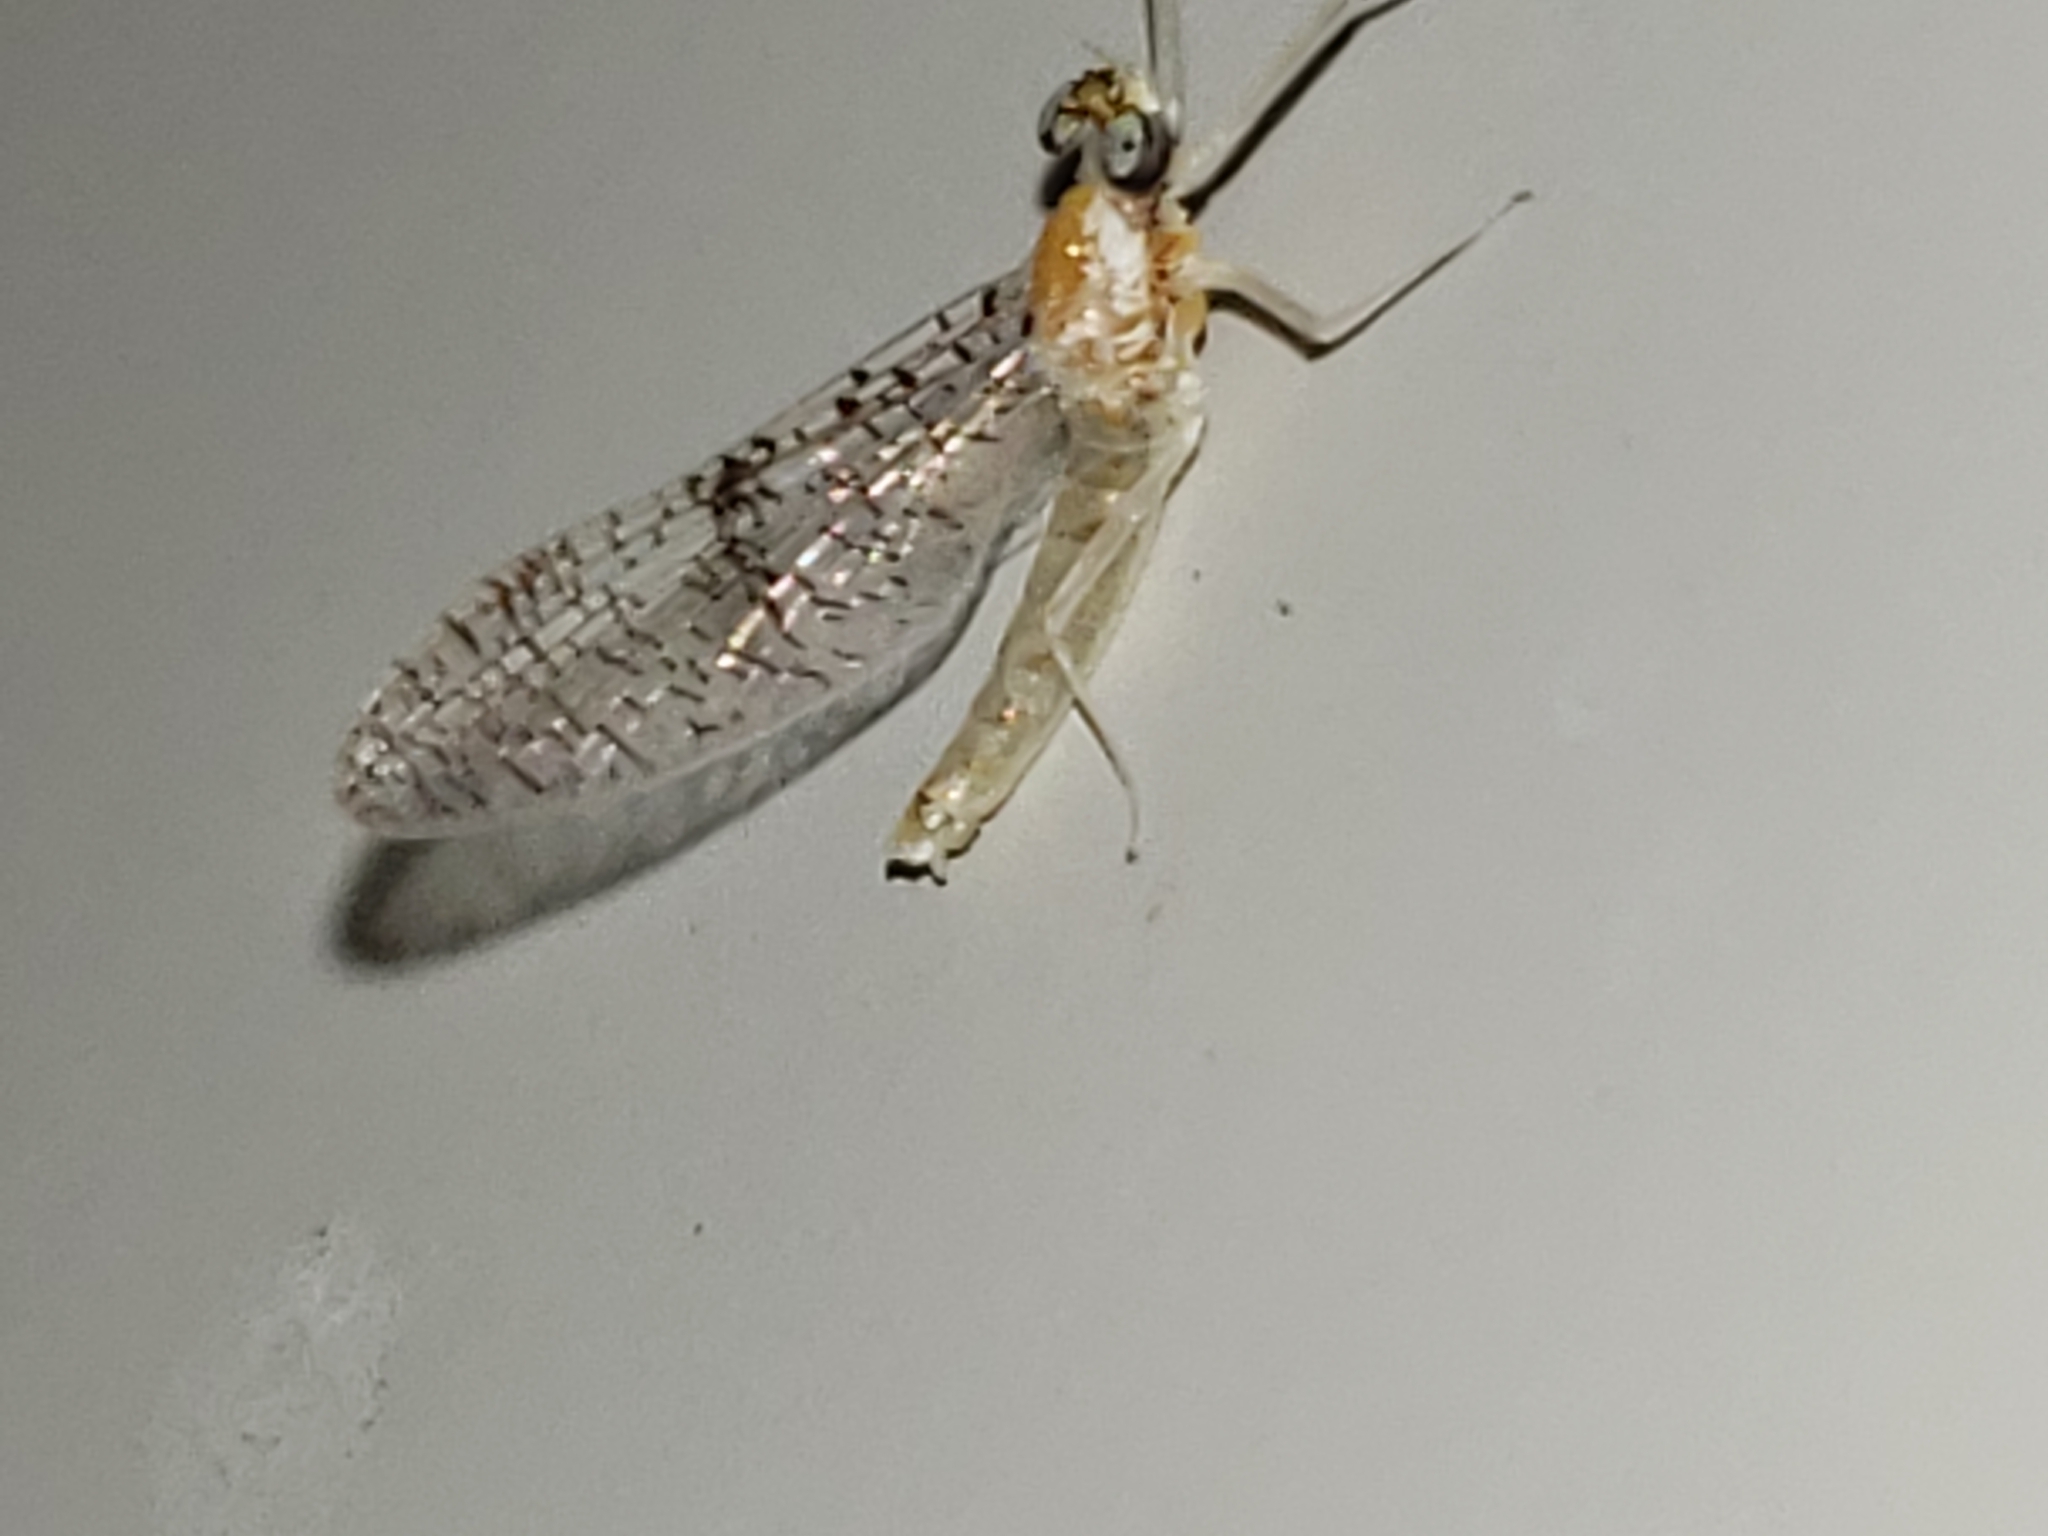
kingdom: Animalia
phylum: Arthropoda
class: Insecta
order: Ephemeroptera
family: Heptageniidae
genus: Leucrocuta
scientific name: Leucrocuta juno
